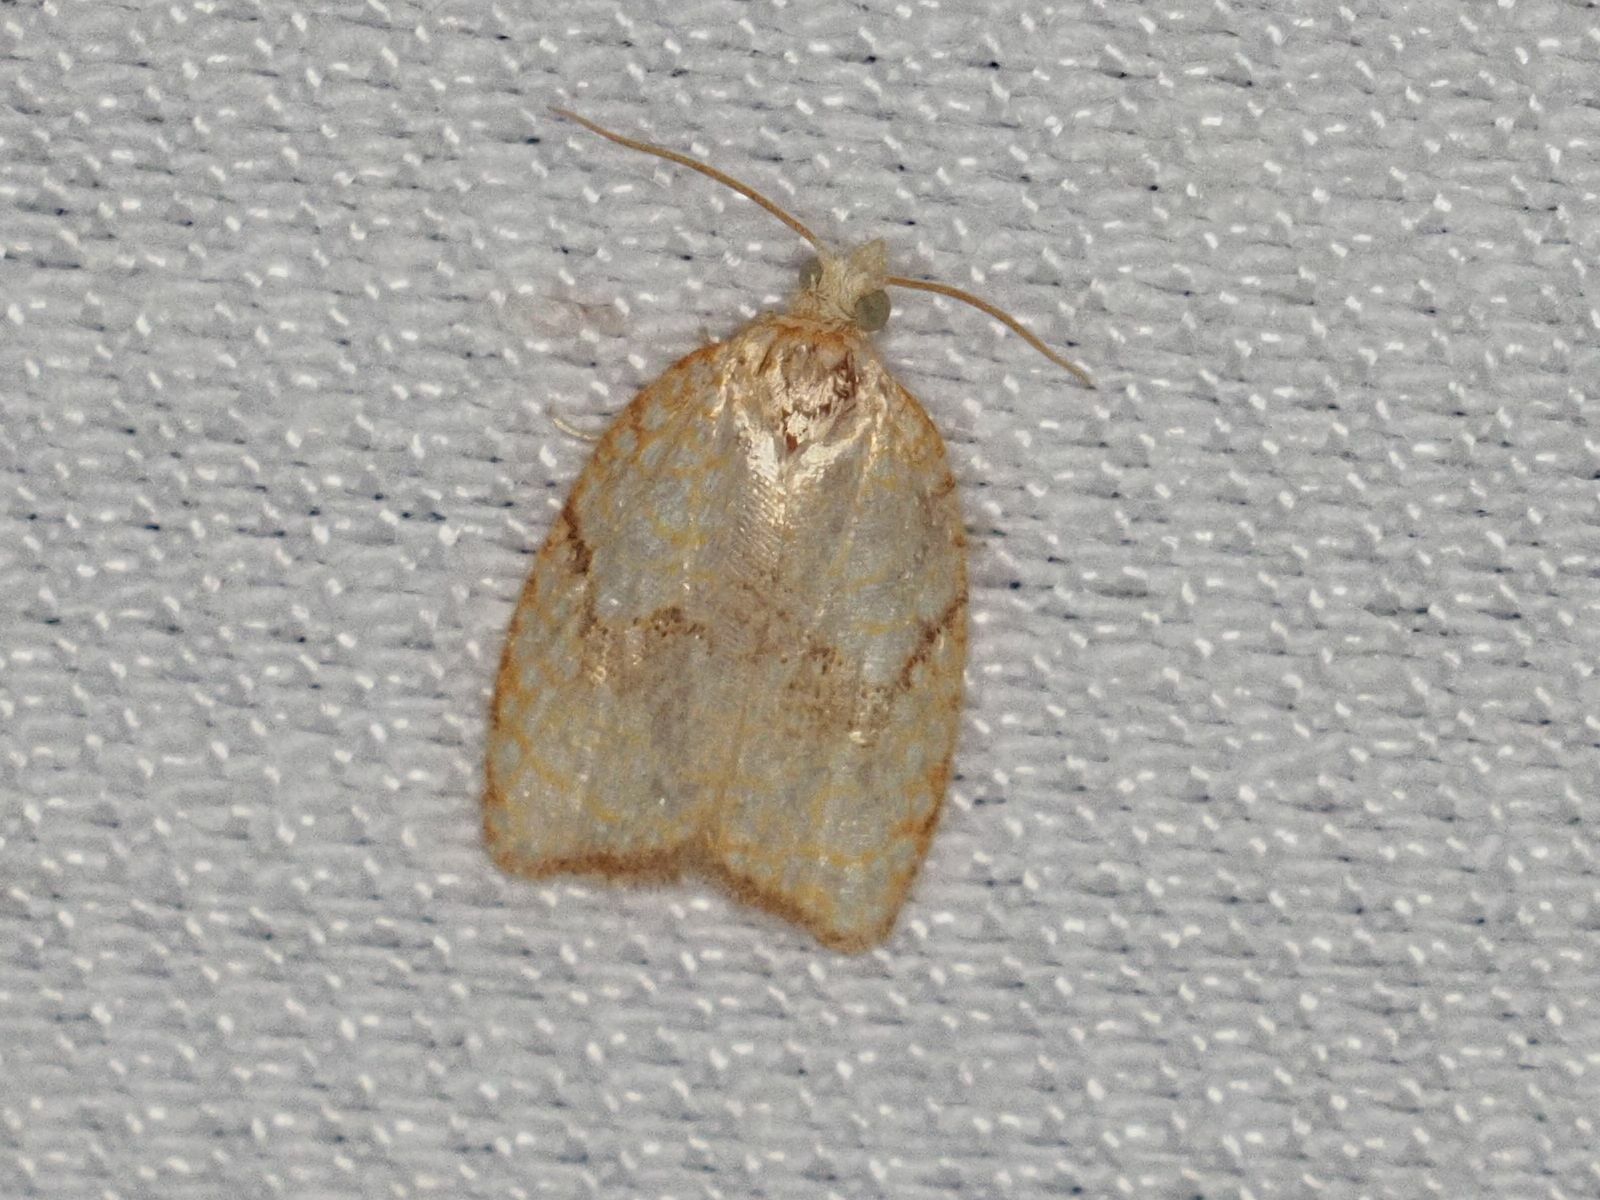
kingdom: Animalia
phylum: Arthropoda
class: Insecta
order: Lepidoptera
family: Tortricidae
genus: Acleris
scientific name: Acleris forsskaleana
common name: Maple button
